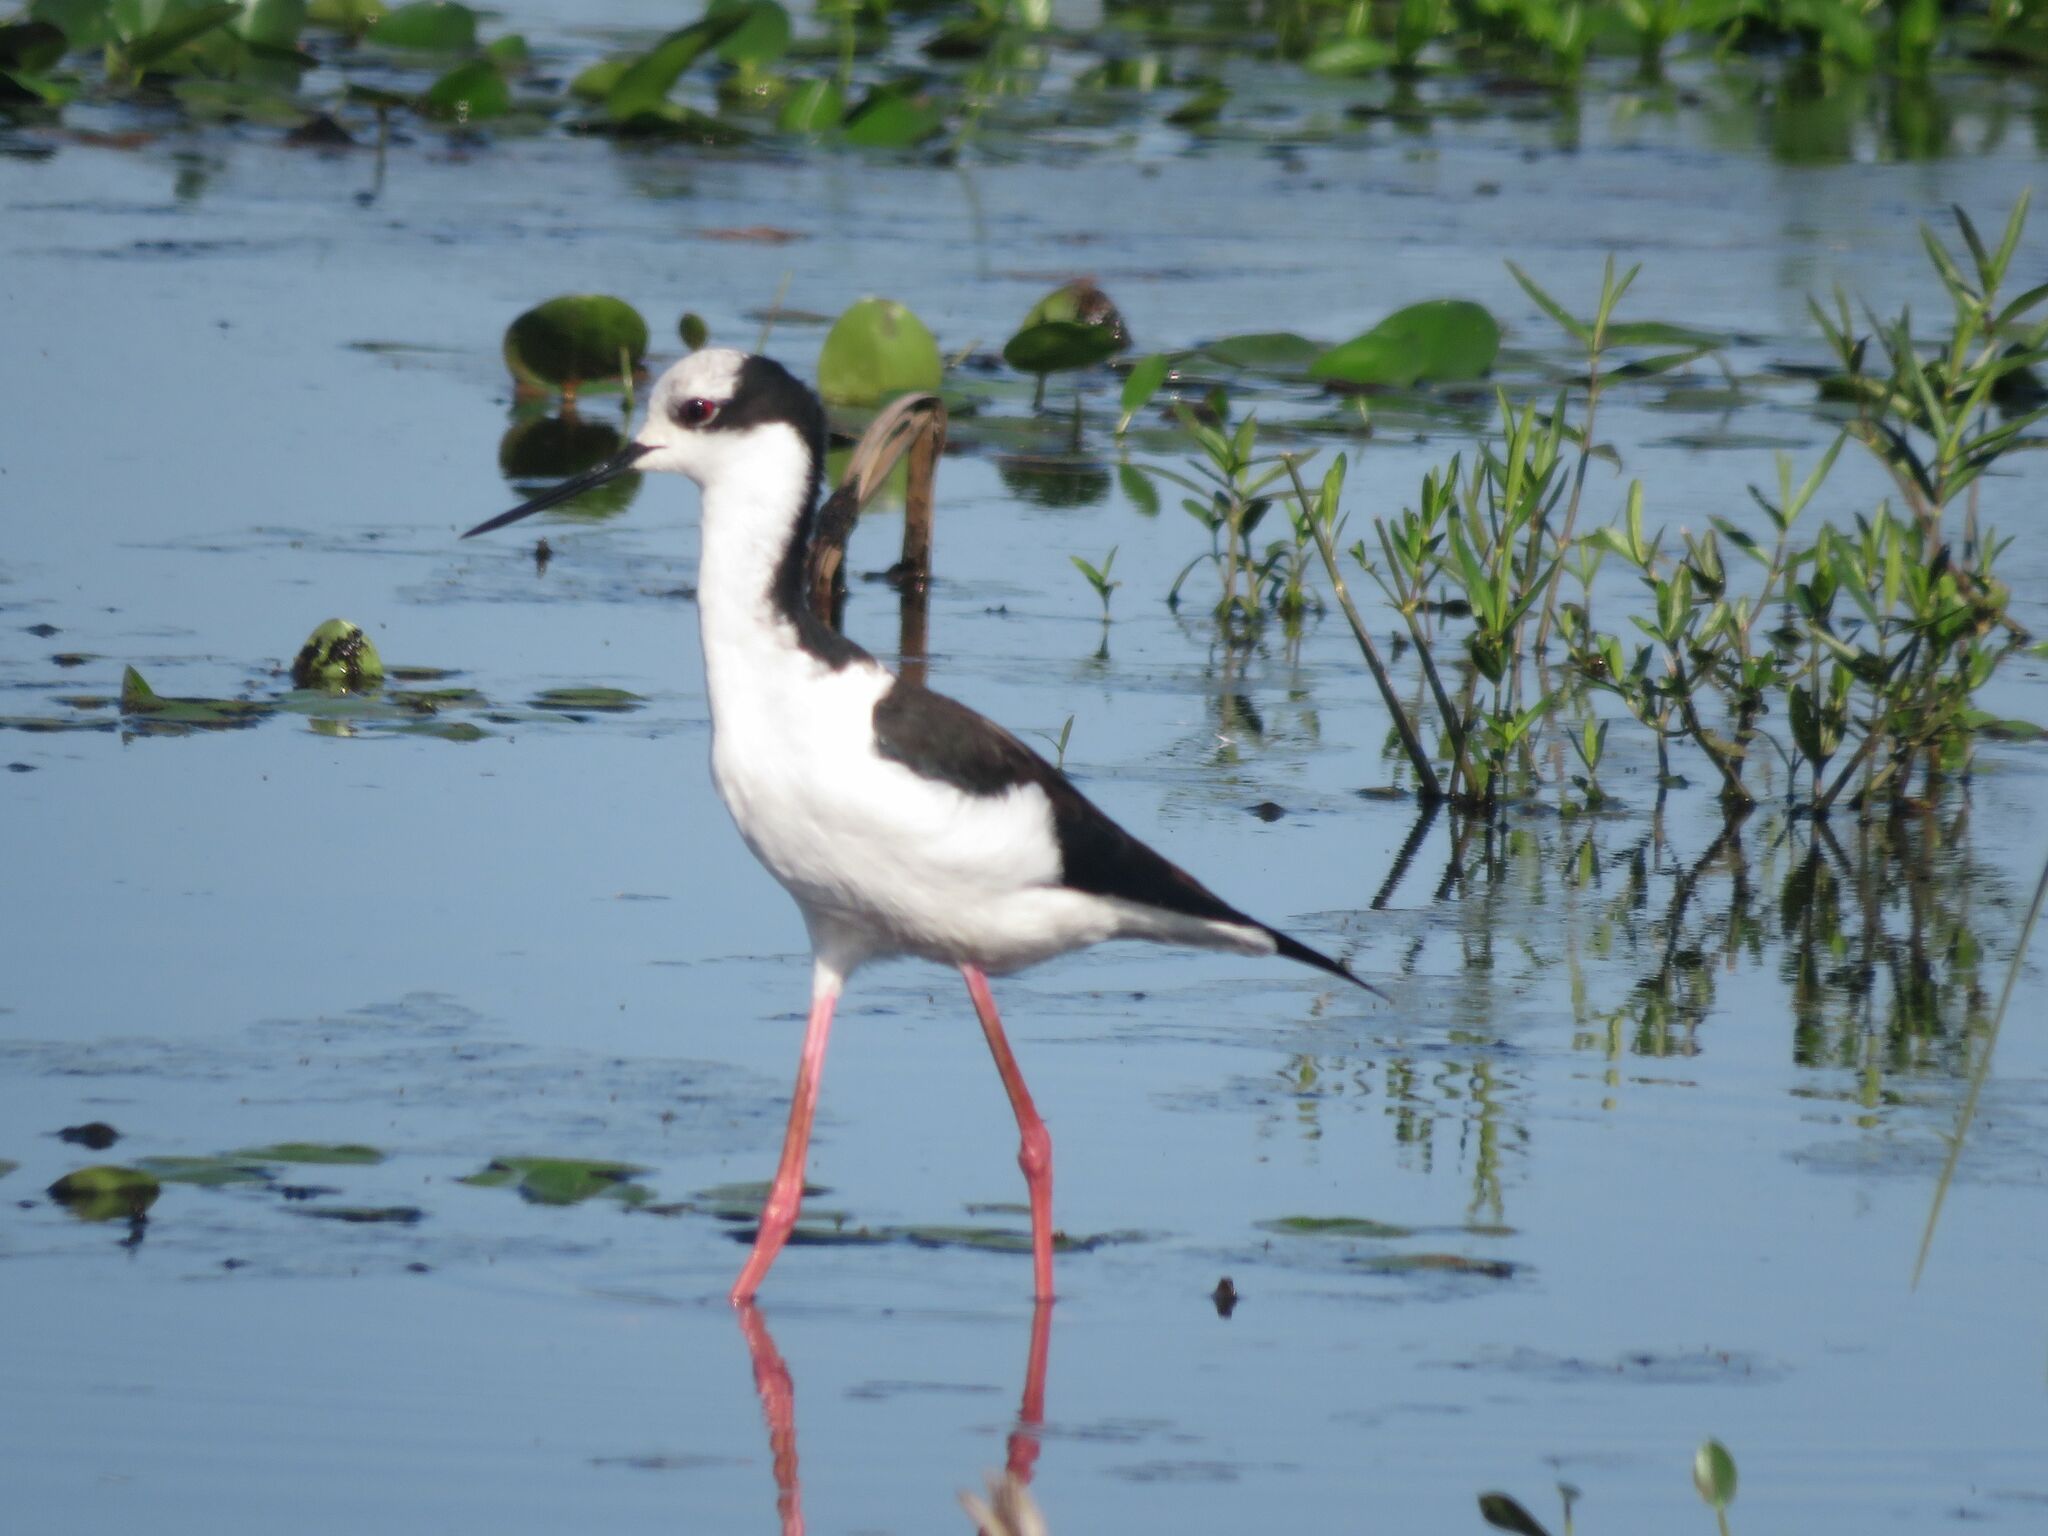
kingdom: Animalia
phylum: Chordata
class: Aves
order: Charadriiformes
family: Recurvirostridae
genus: Himantopus
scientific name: Himantopus mexicanus
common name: Black-necked stilt
